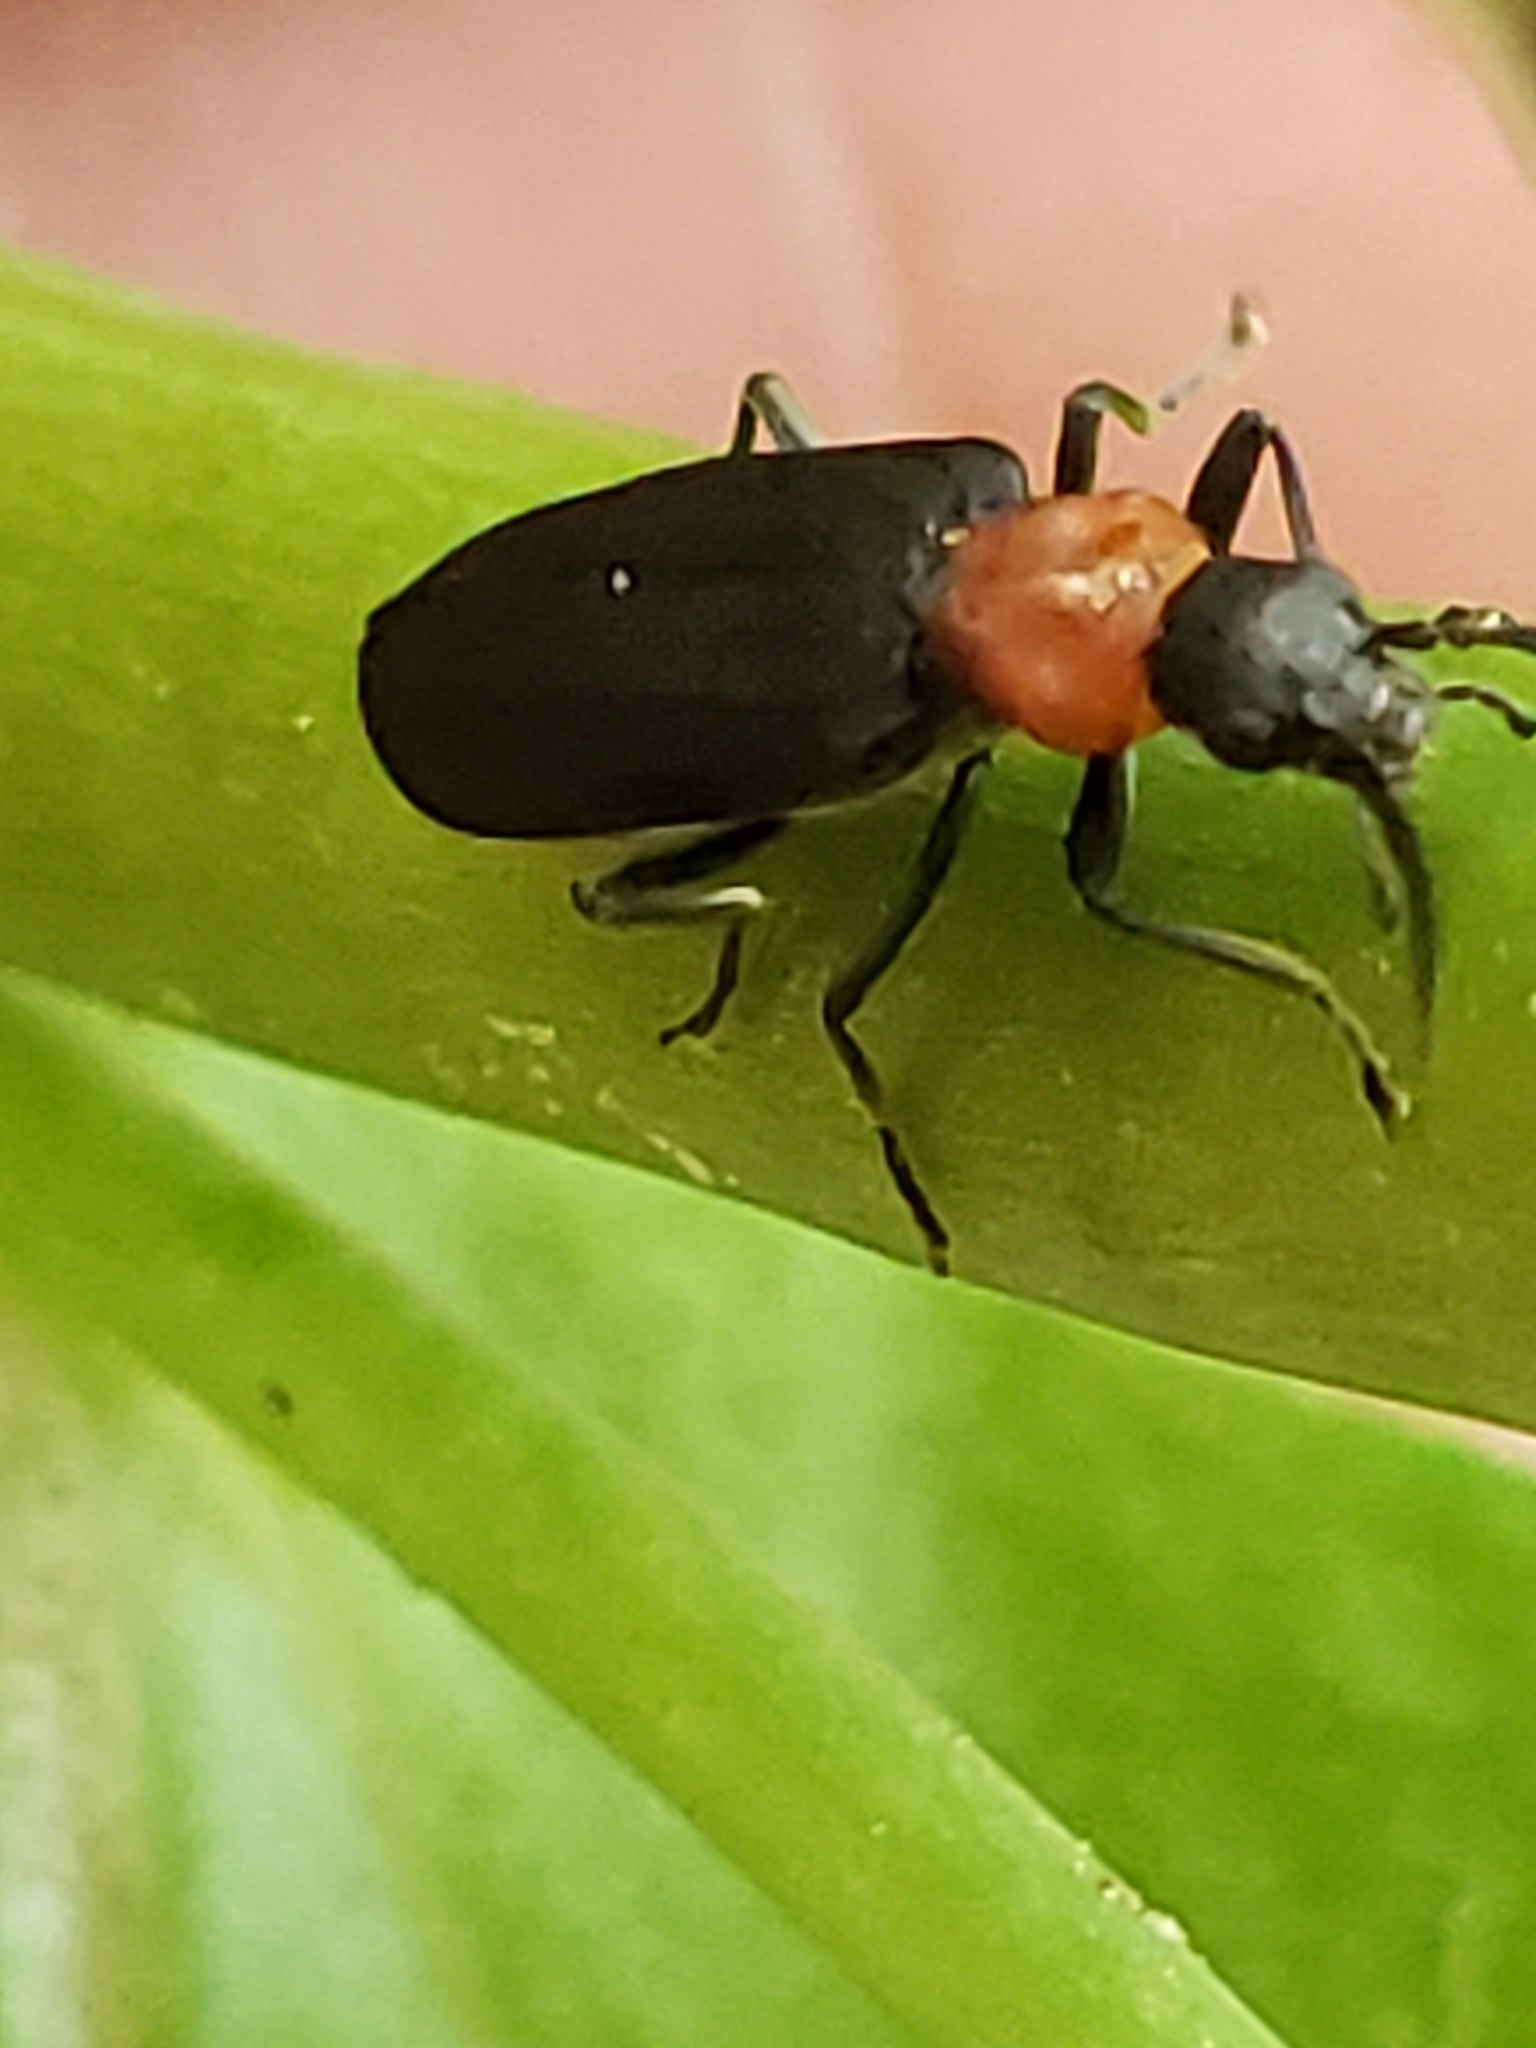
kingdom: Animalia
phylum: Arthropoda
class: Insecta
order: Coleoptera
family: Oedemeridae
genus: Ischnomera
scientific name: Ischnomera
